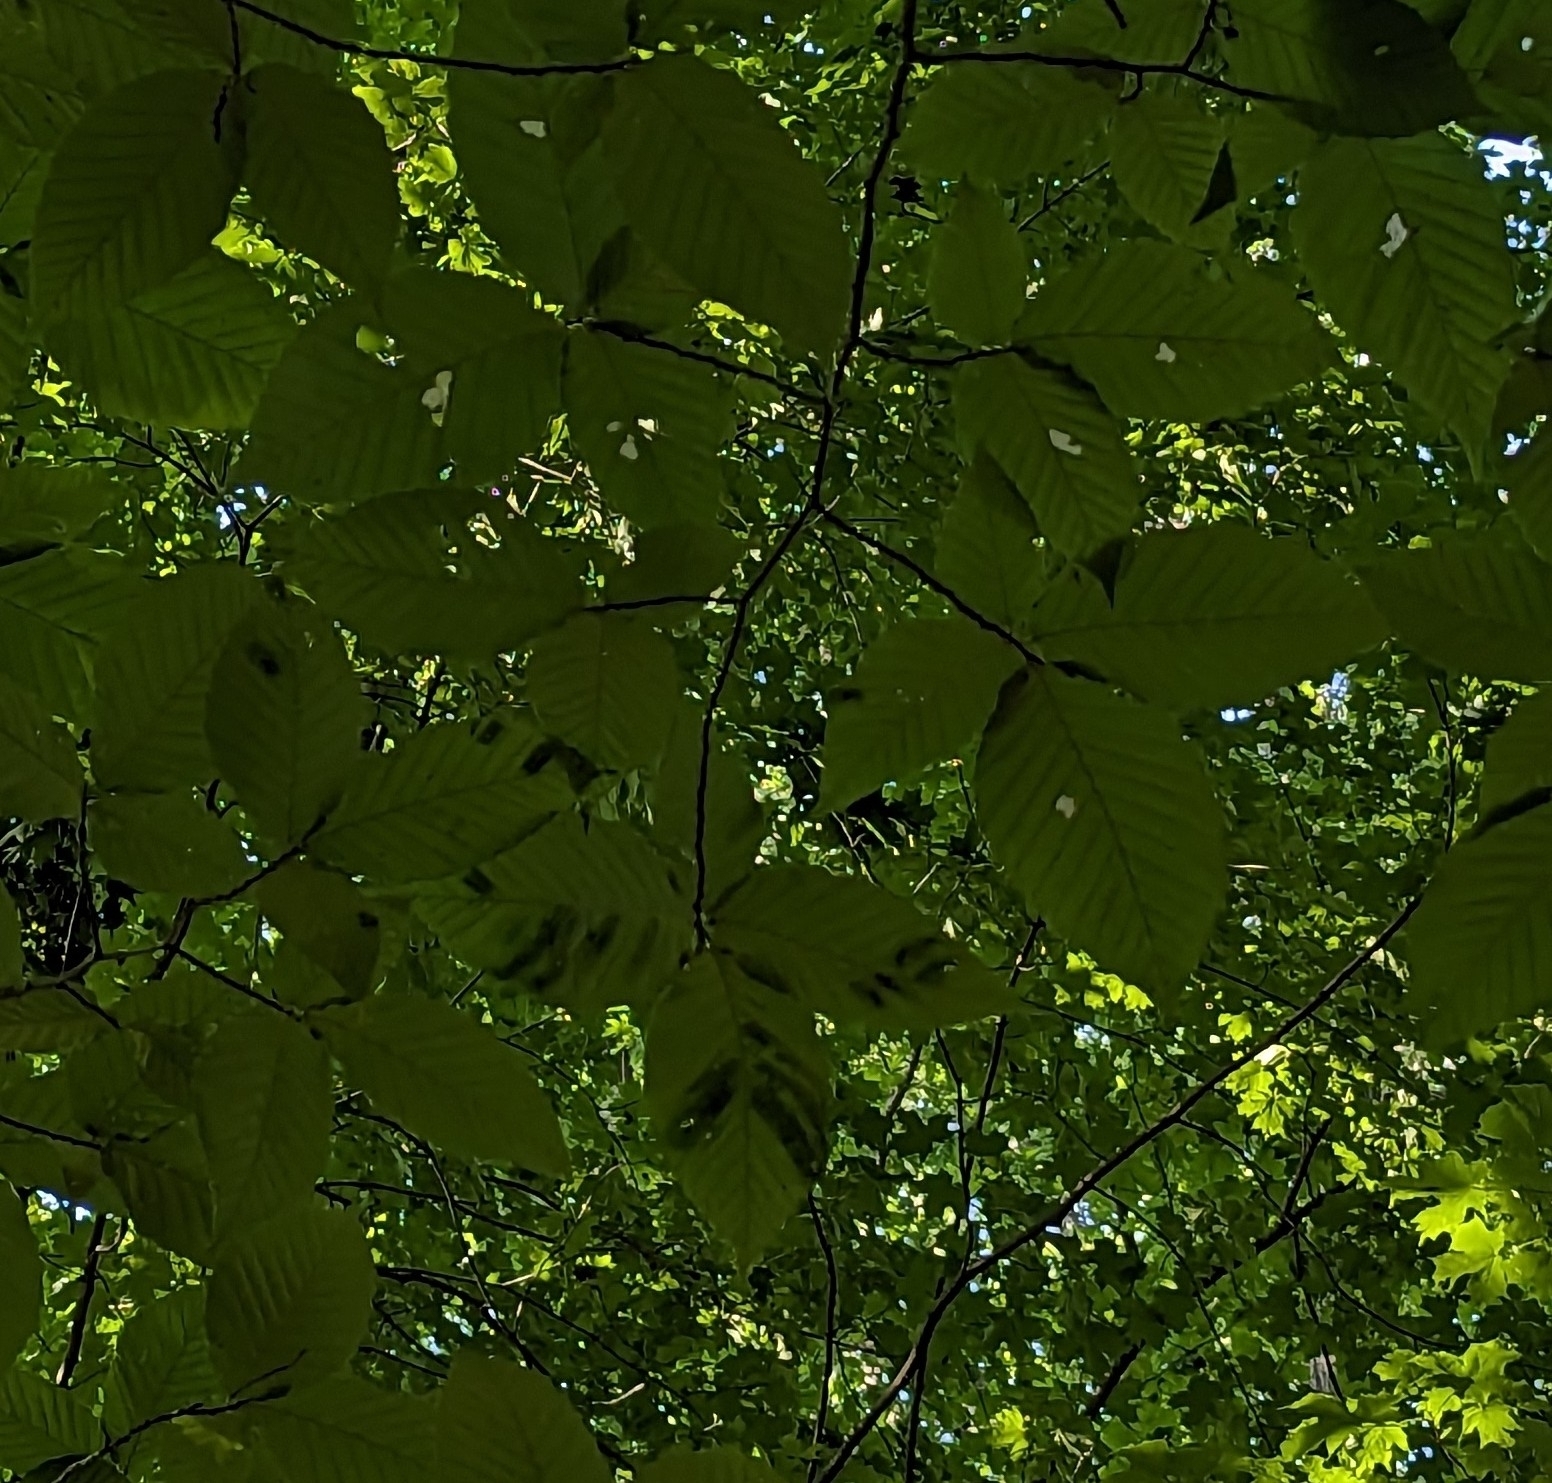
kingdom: Animalia
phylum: Nematoda
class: Chromadorea
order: Rhabditida
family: Anguinidae
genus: Litylenchus
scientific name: Litylenchus crenatae
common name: Beech leaf disease
